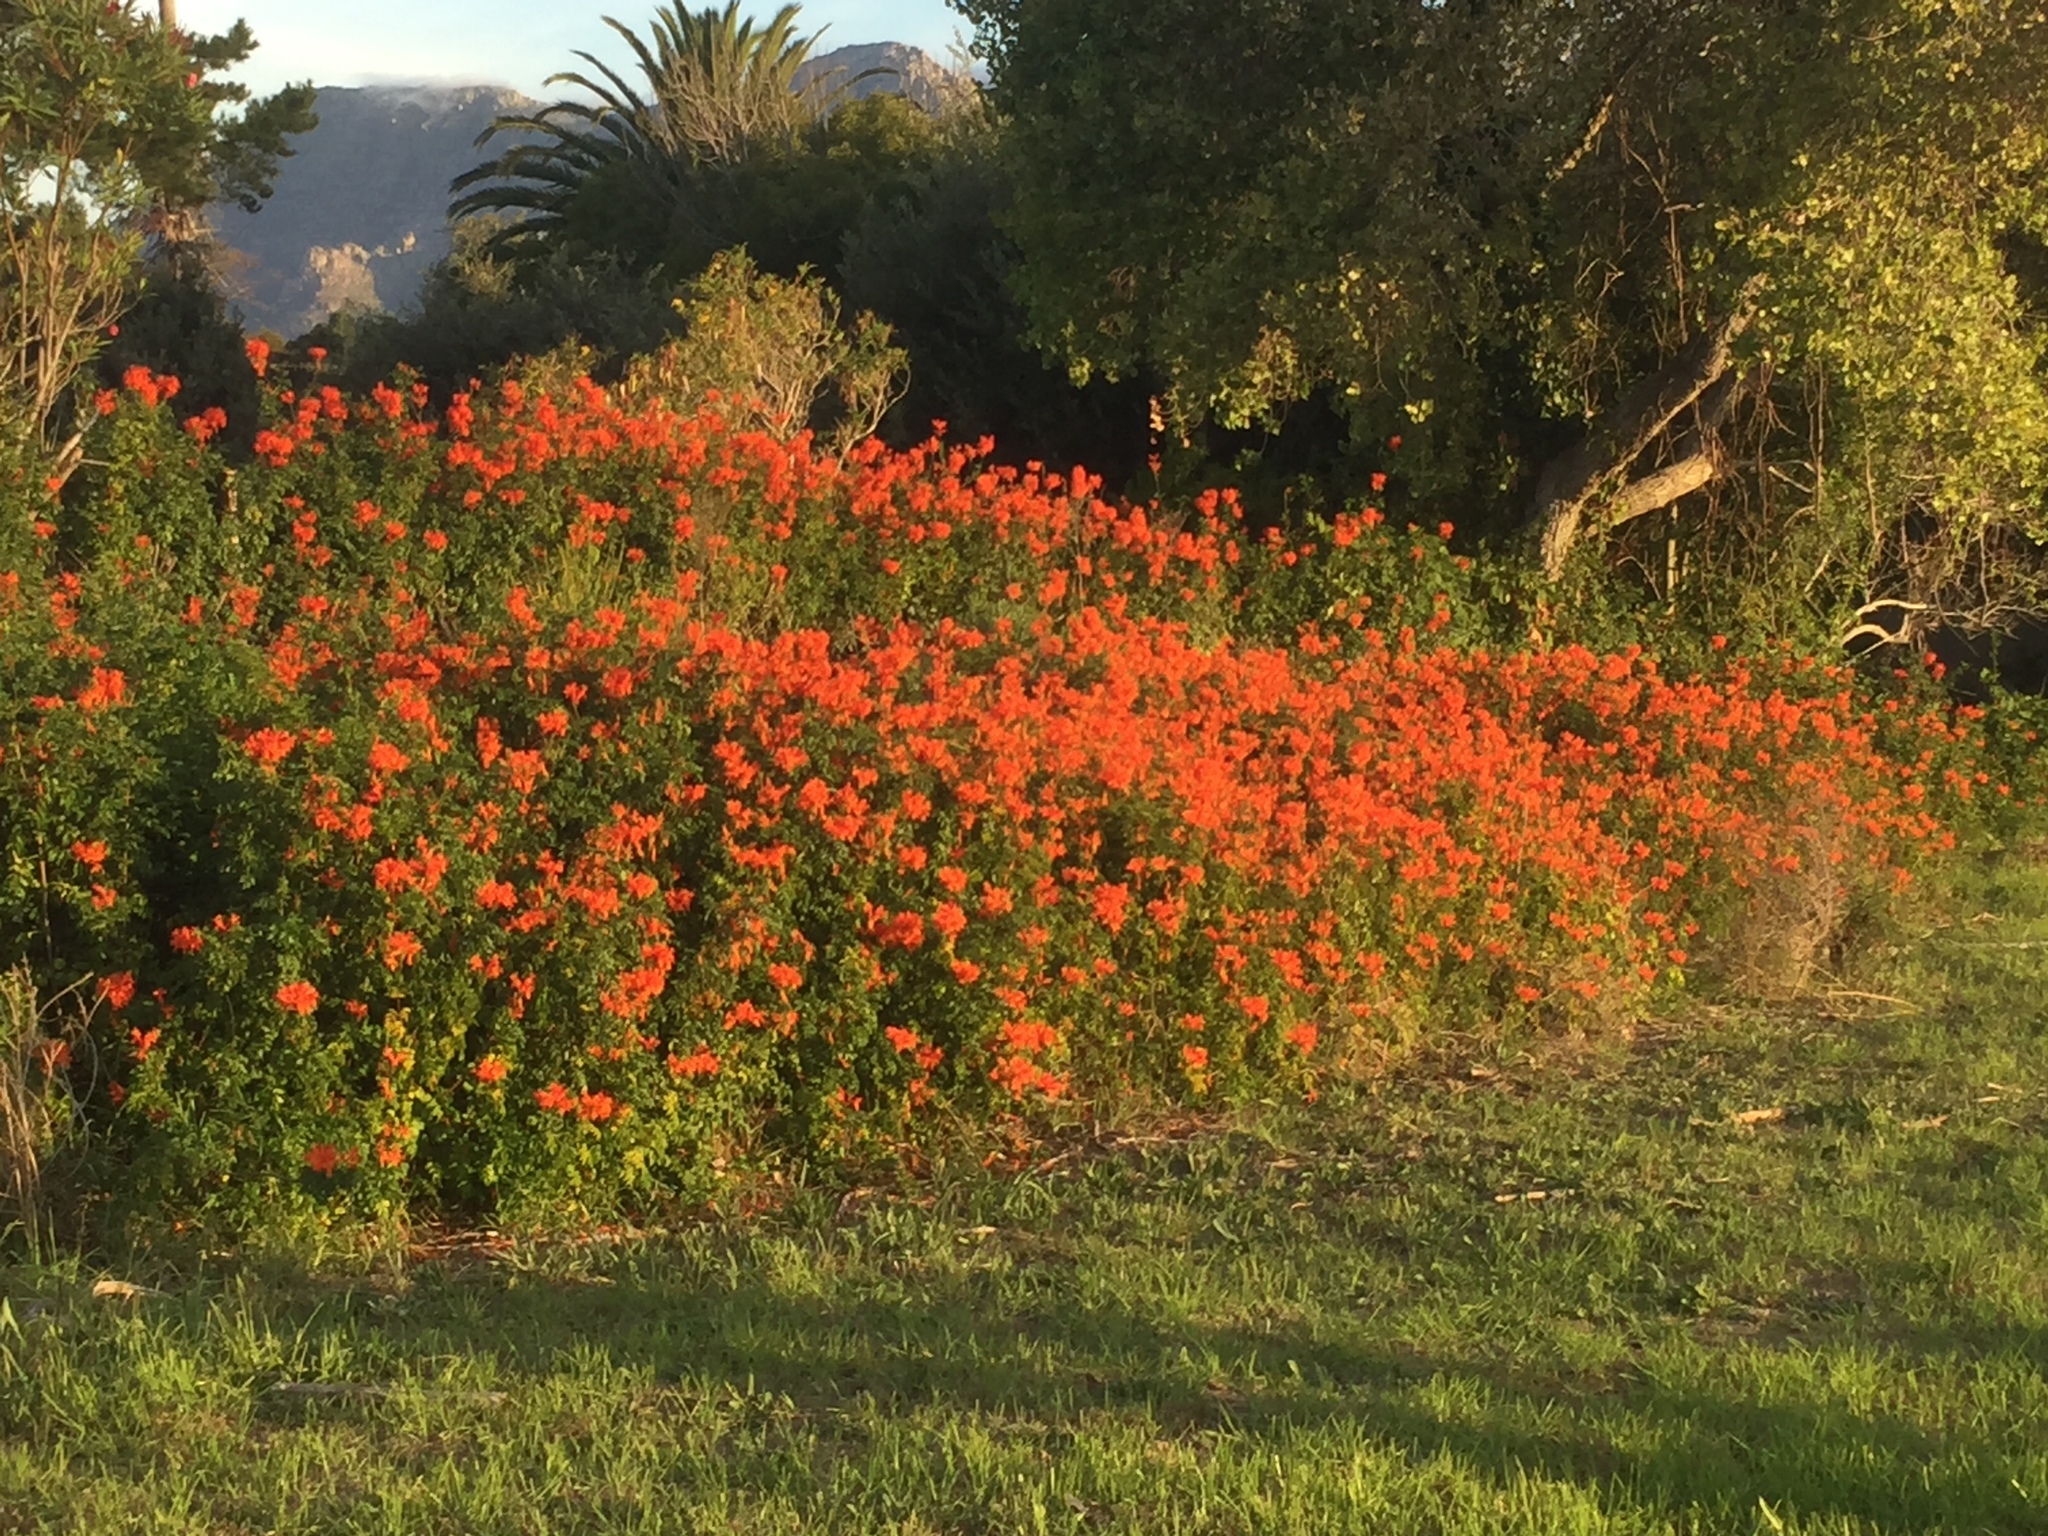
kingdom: Plantae
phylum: Tracheophyta
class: Magnoliopsida
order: Lamiales
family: Bignoniaceae
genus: Tecomaria
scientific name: Tecomaria capensis
